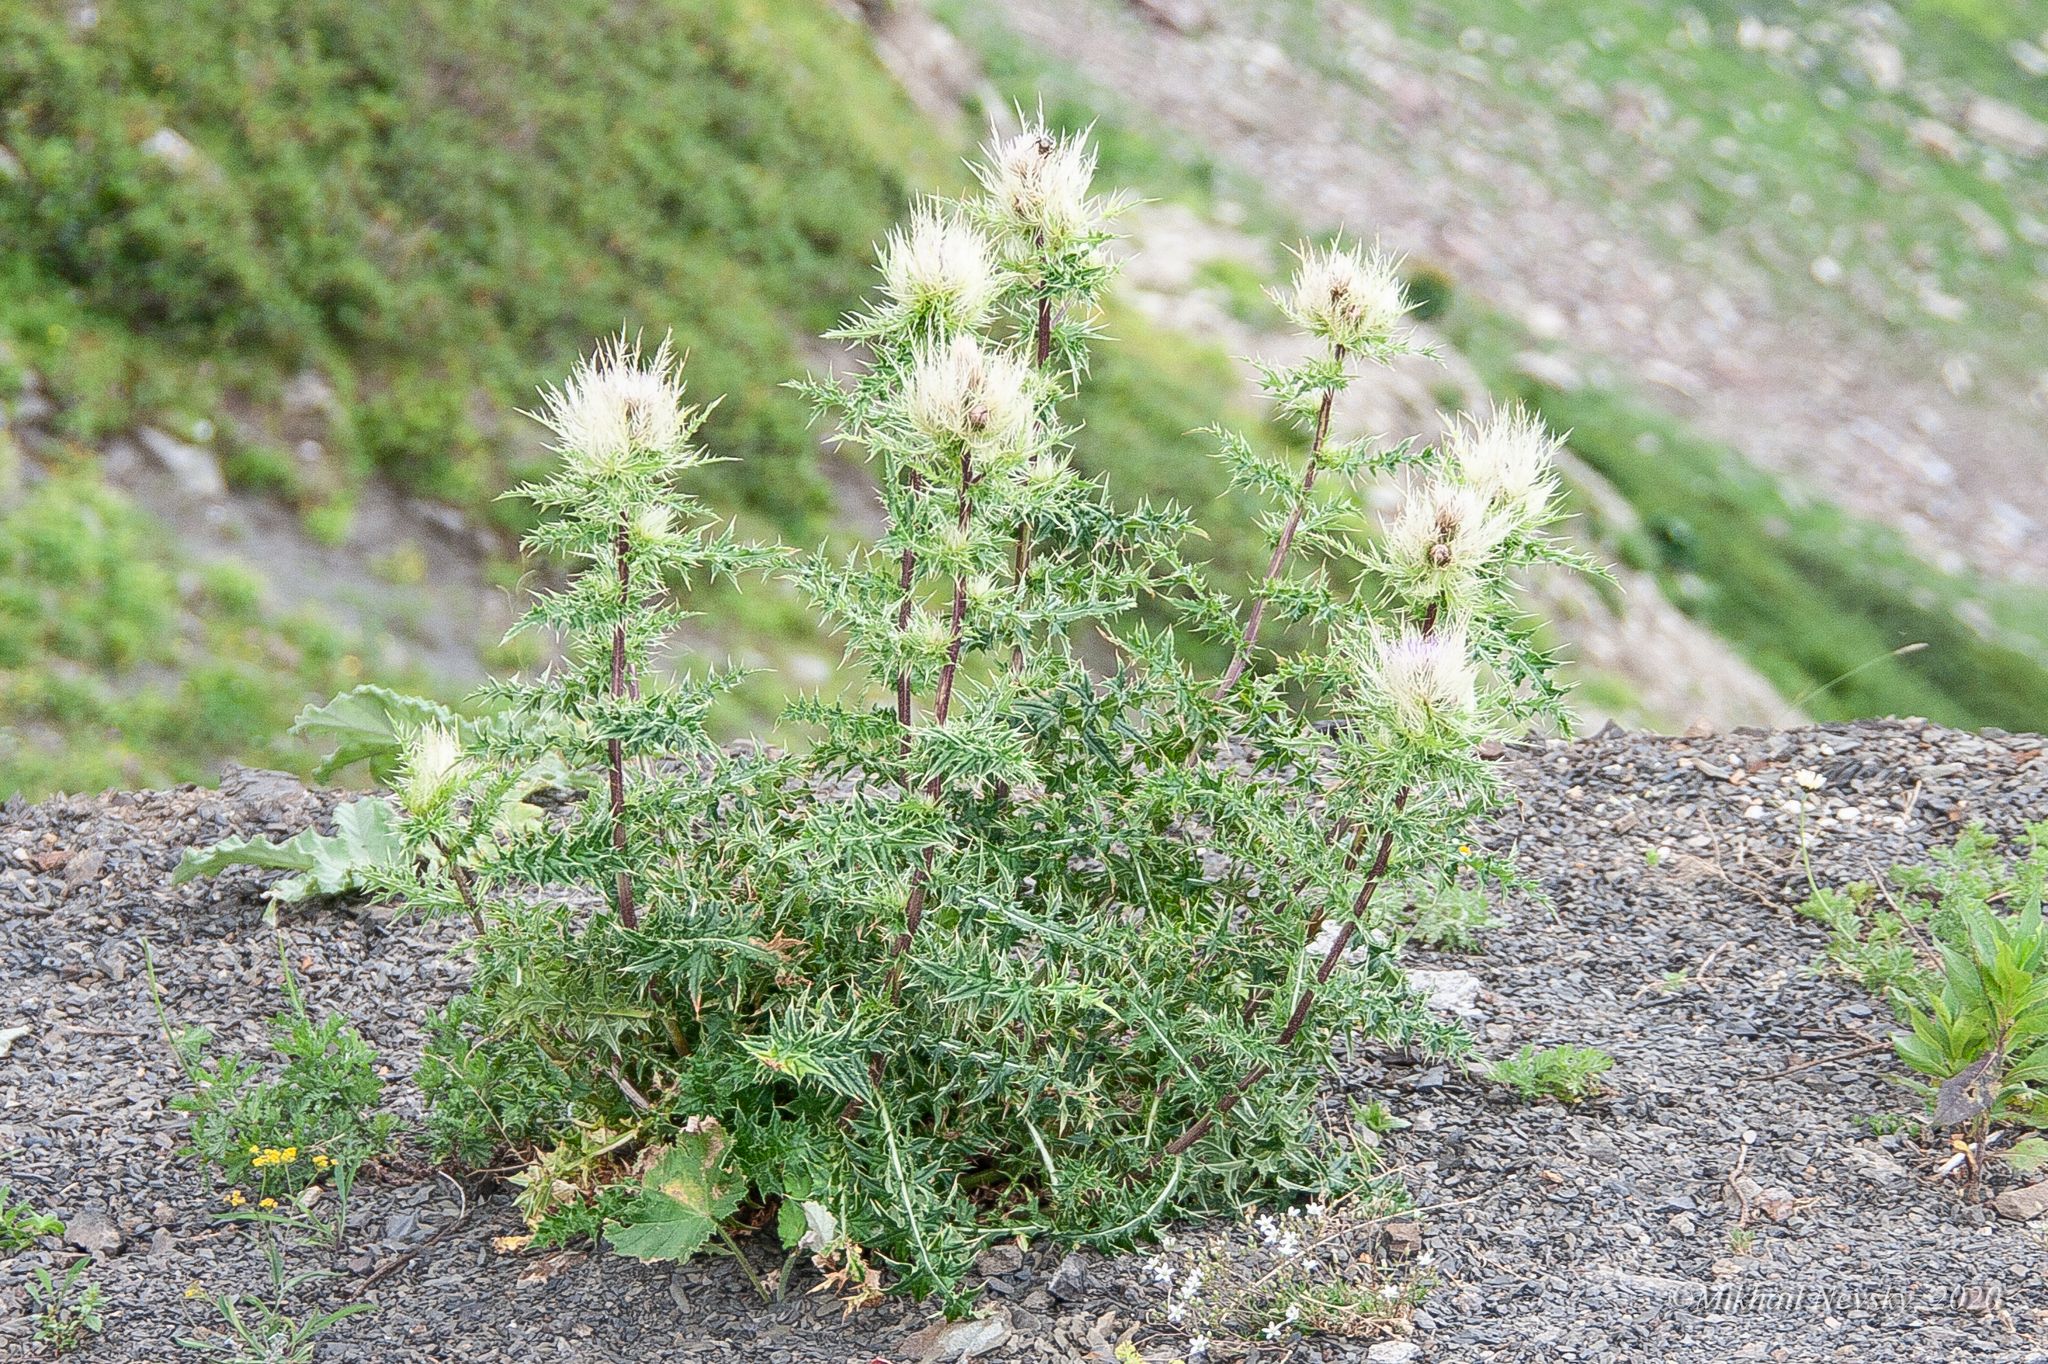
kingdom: Plantae
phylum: Tracheophyta
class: Magnoliopsida
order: Asterales
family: Asteraceae
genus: Cirsium
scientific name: Cirsium obvallatum
